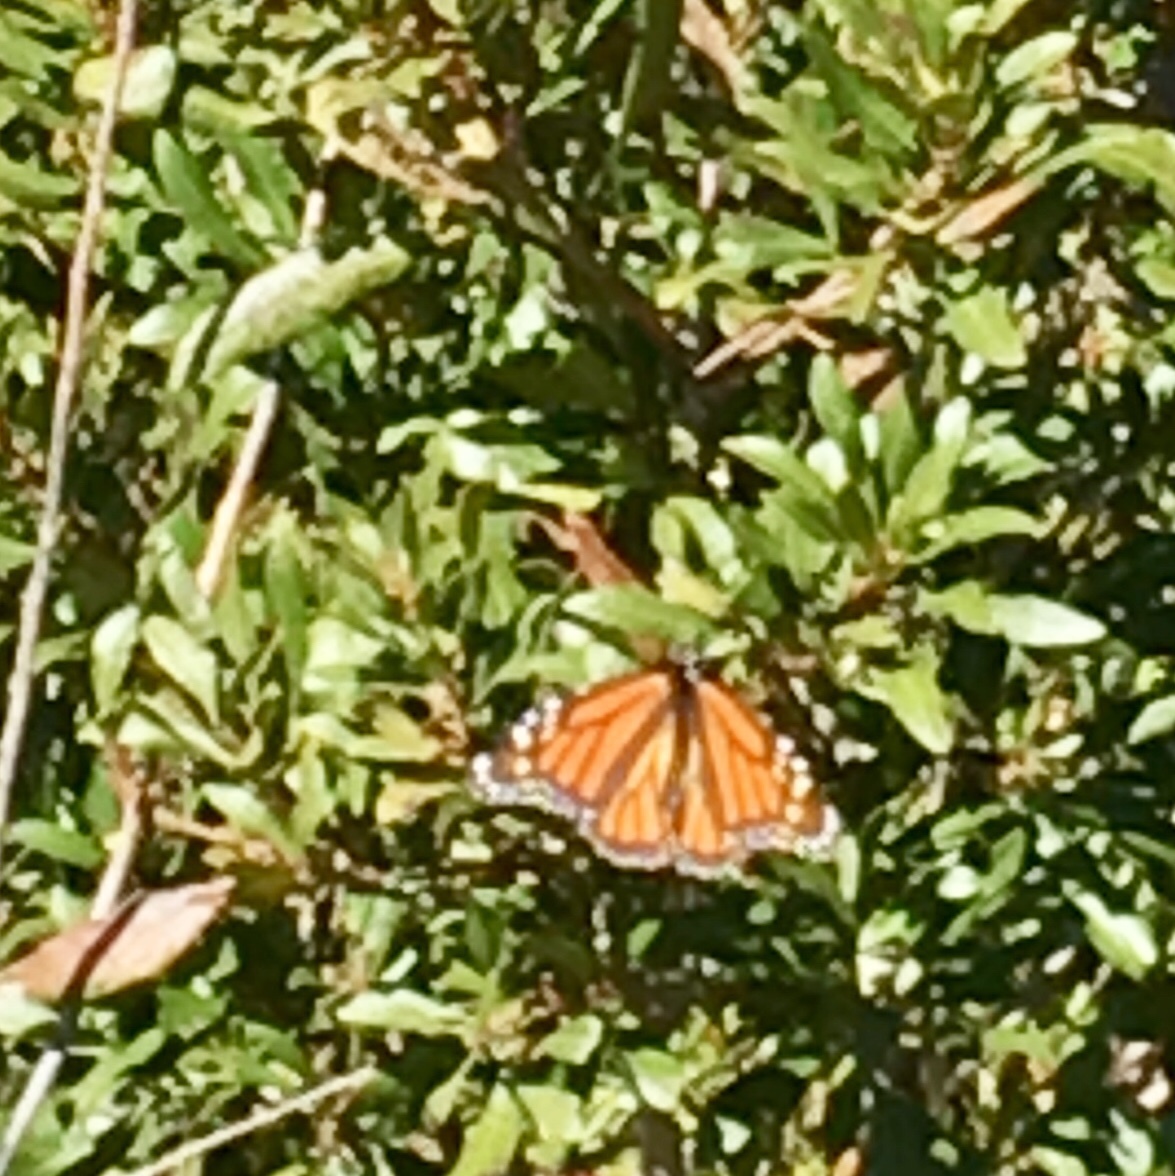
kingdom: Animalia
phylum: Arthropoda
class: Insecta
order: Lepidoptera
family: Nymphalidae
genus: Danaus
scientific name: Danaus plexippus
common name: Monarch
